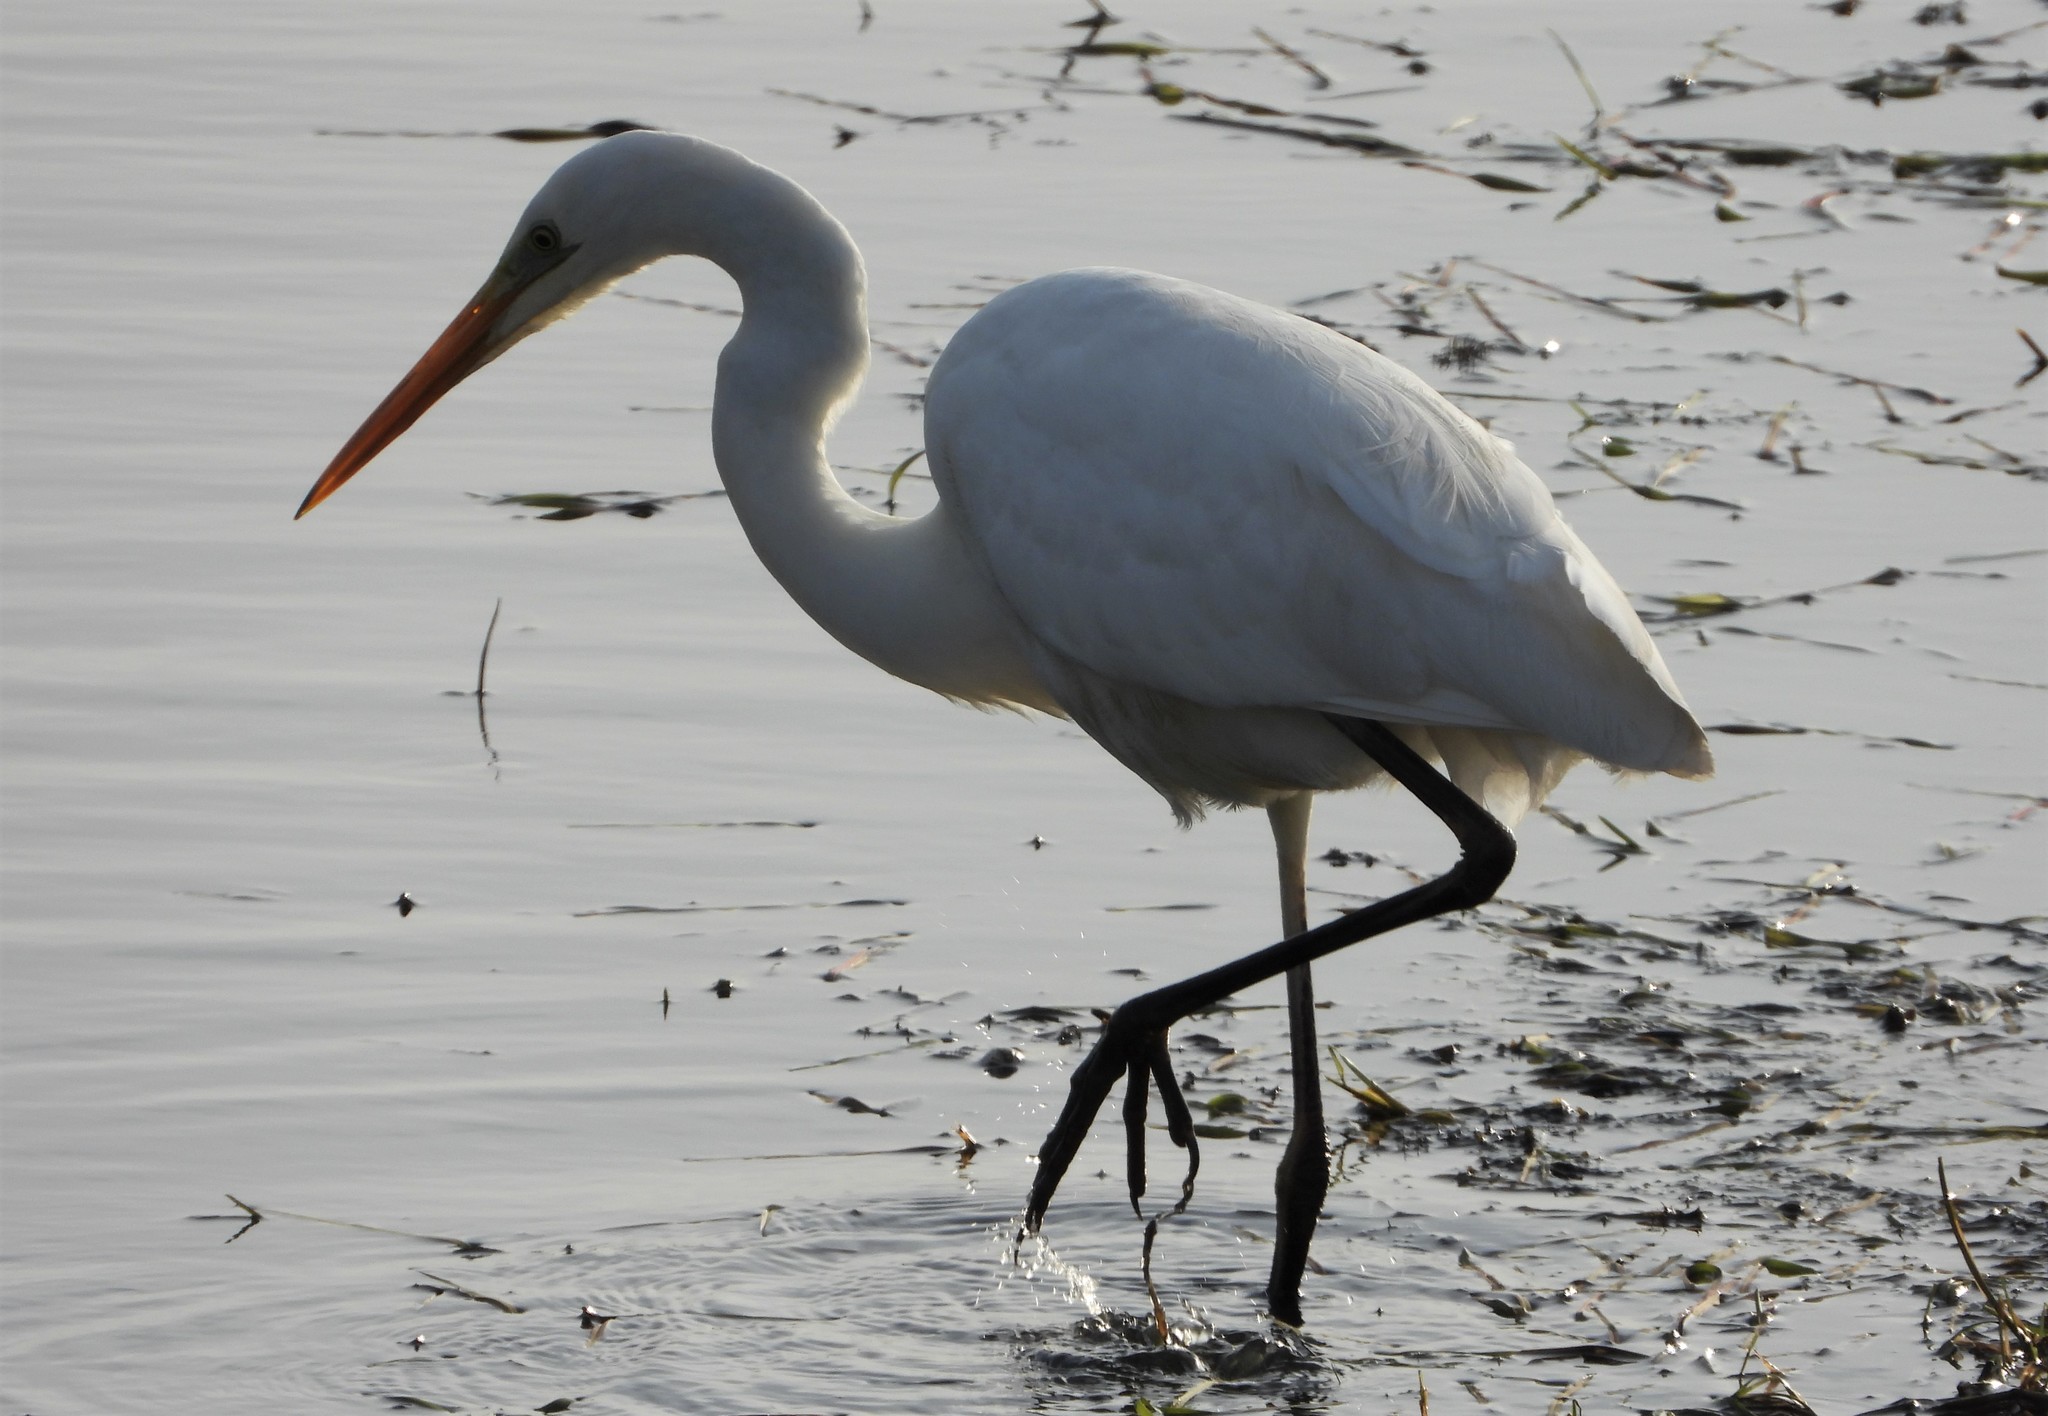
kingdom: Animalia
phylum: Chordata
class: Aves
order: Pelecaniformes
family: Ardeidae
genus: Ardea
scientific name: Ardea alba
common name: Great egret
